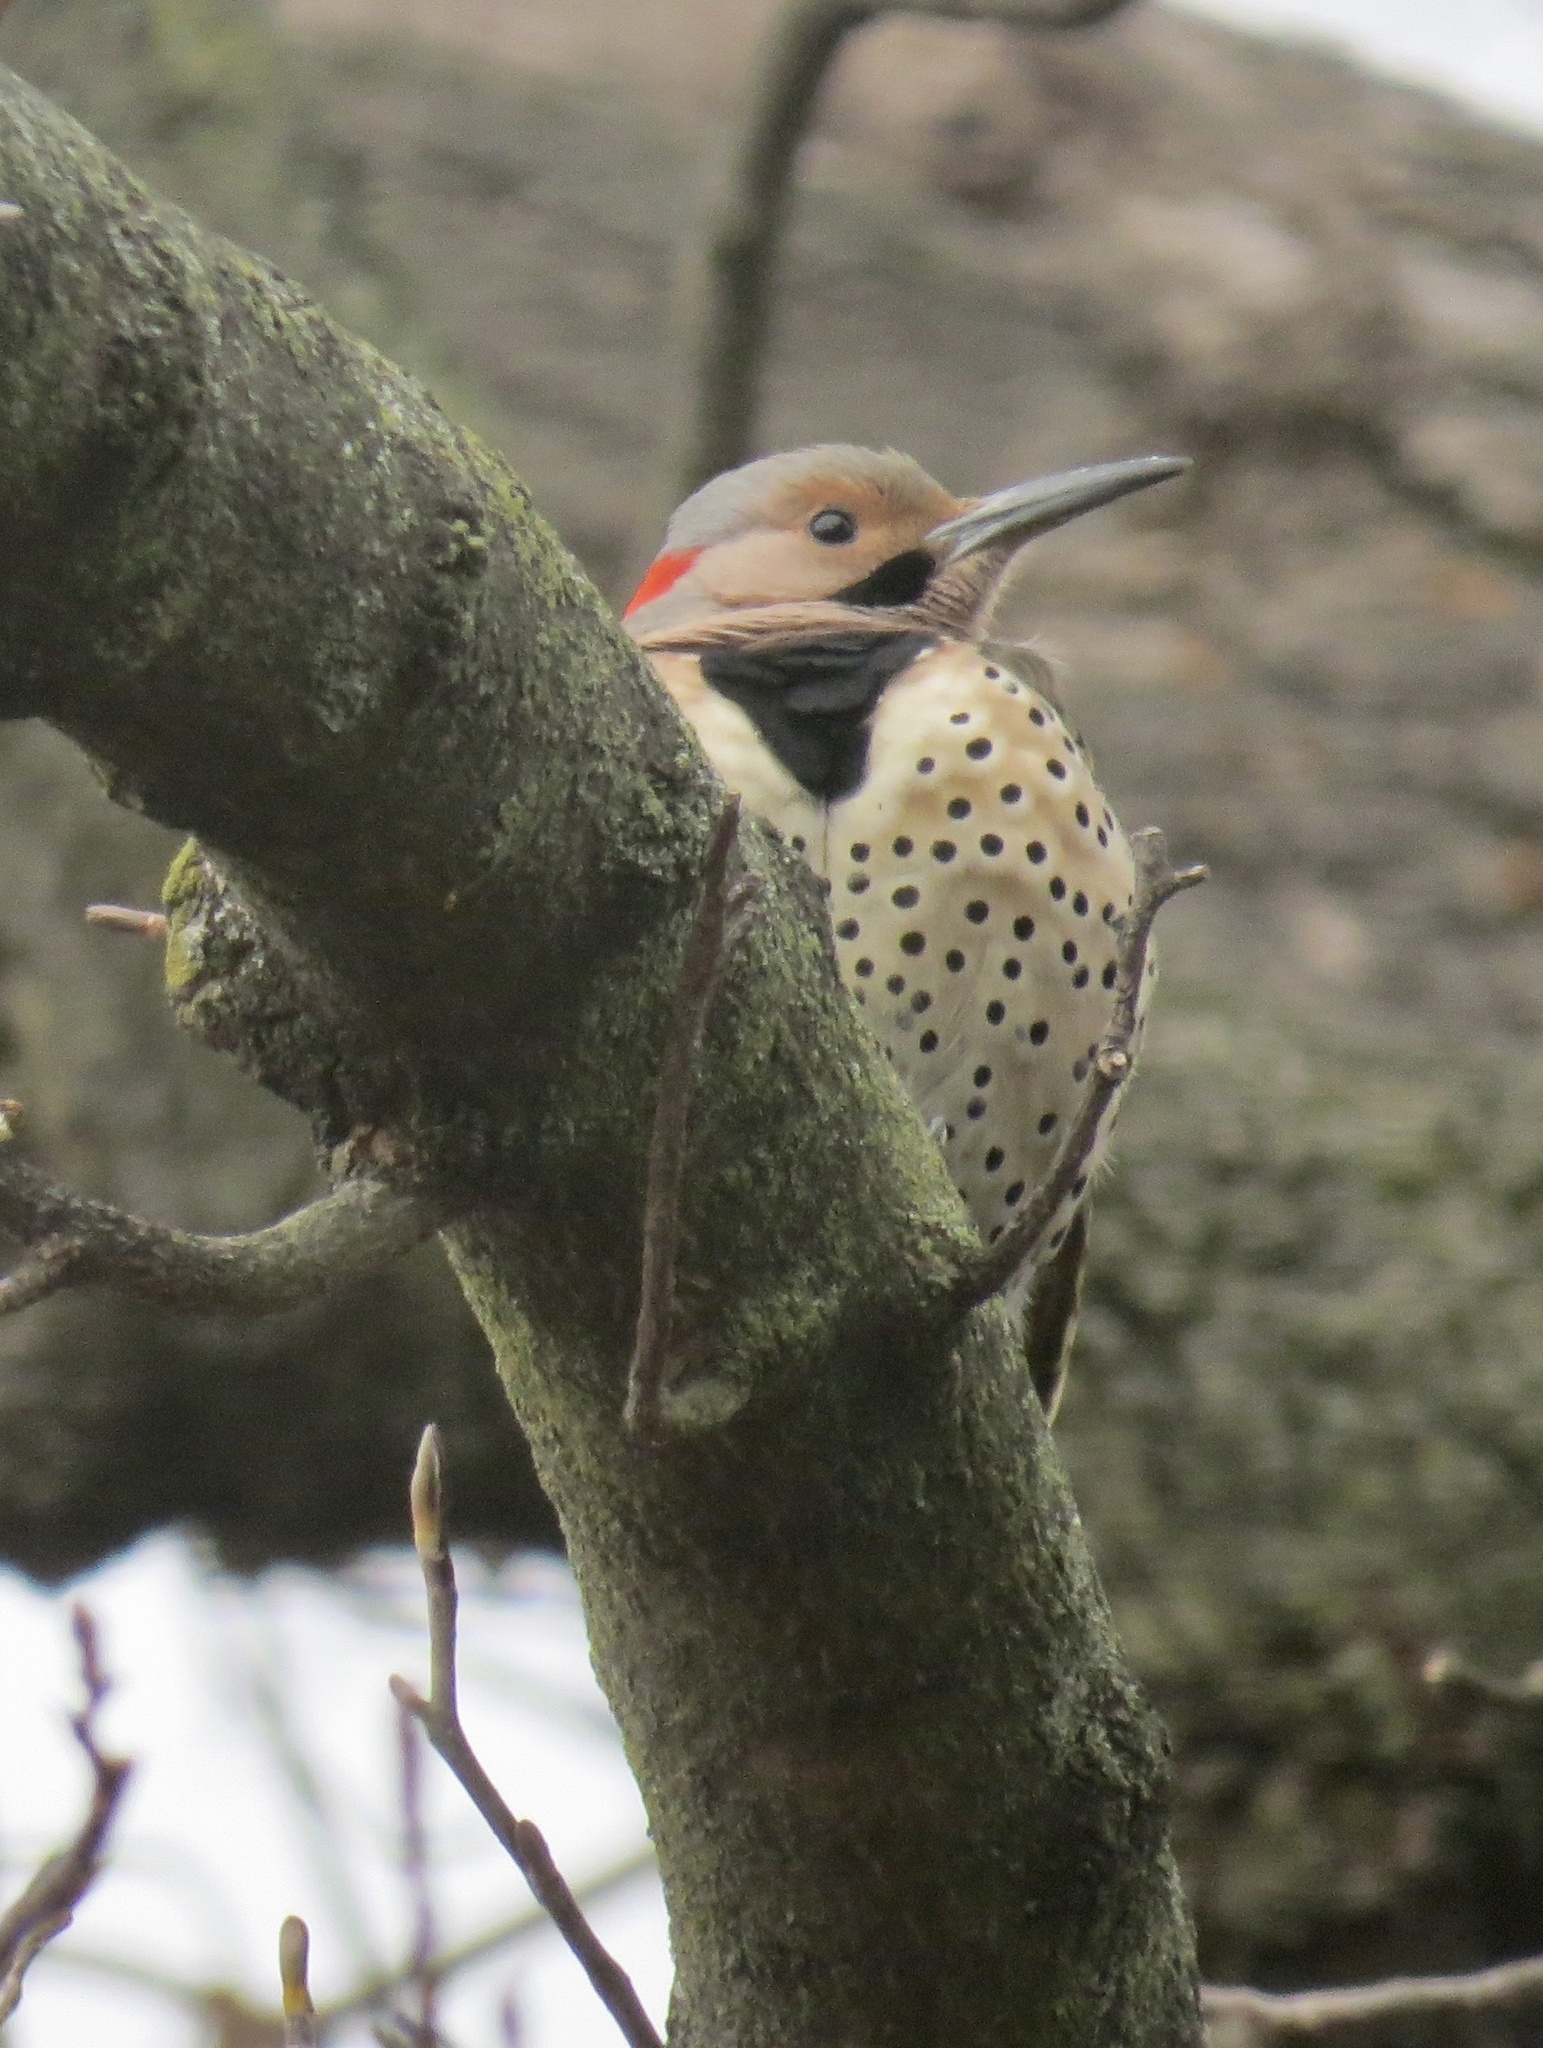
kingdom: Animalia
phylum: Chordata
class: Aves
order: Piciformes
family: Picidae
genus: Colaptes
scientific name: Colaptes auratus
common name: Northern flicker
